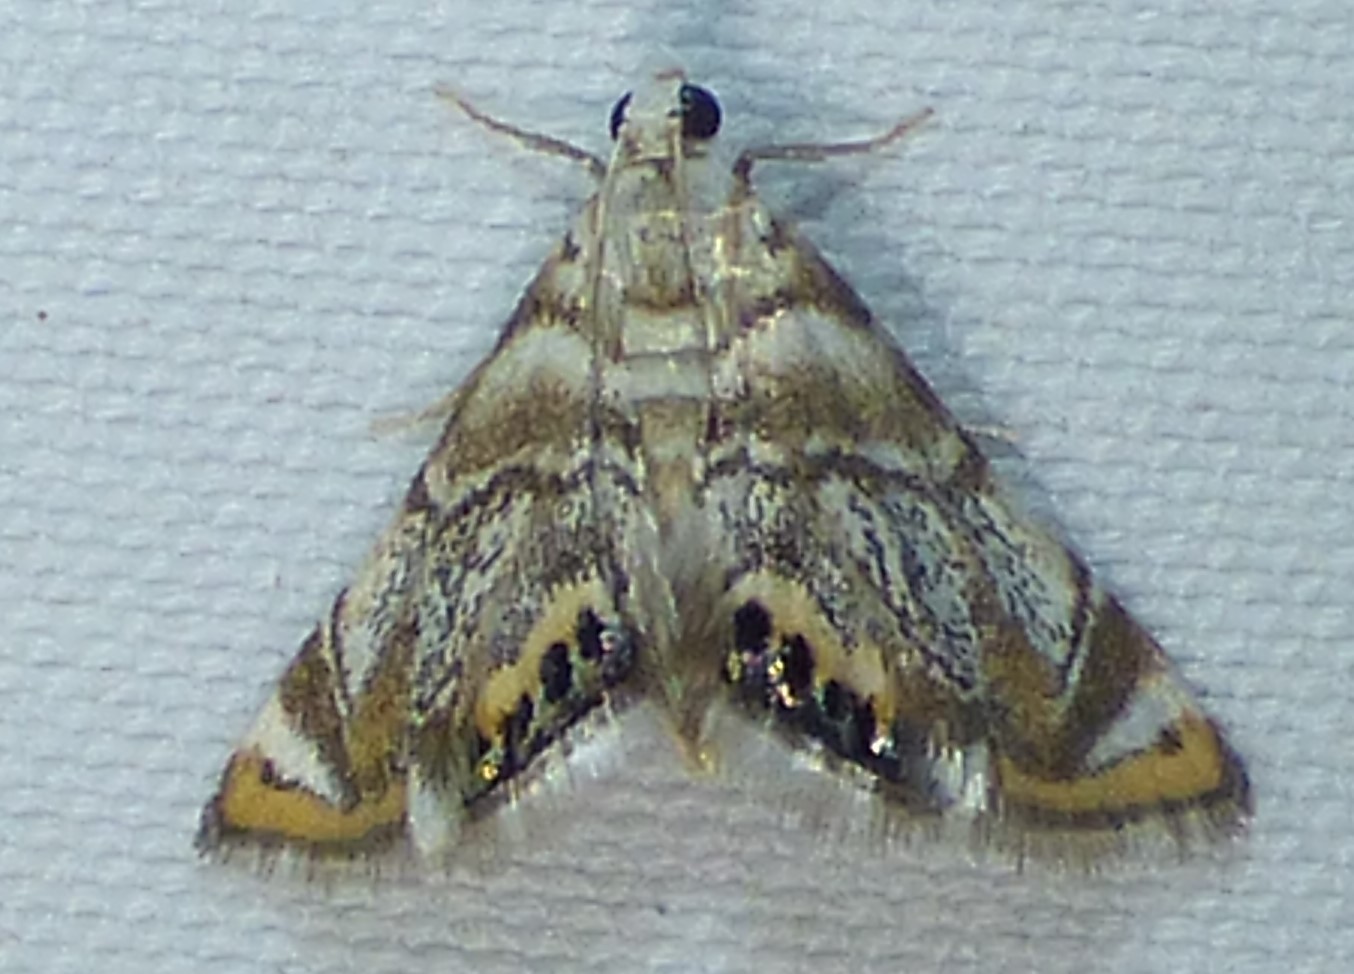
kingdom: Animalia
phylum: Arthropoda
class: Insecta
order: Lepidoptera
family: Crambidae
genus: Eoparargyractis
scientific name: Eoparargyractis irroratalis
